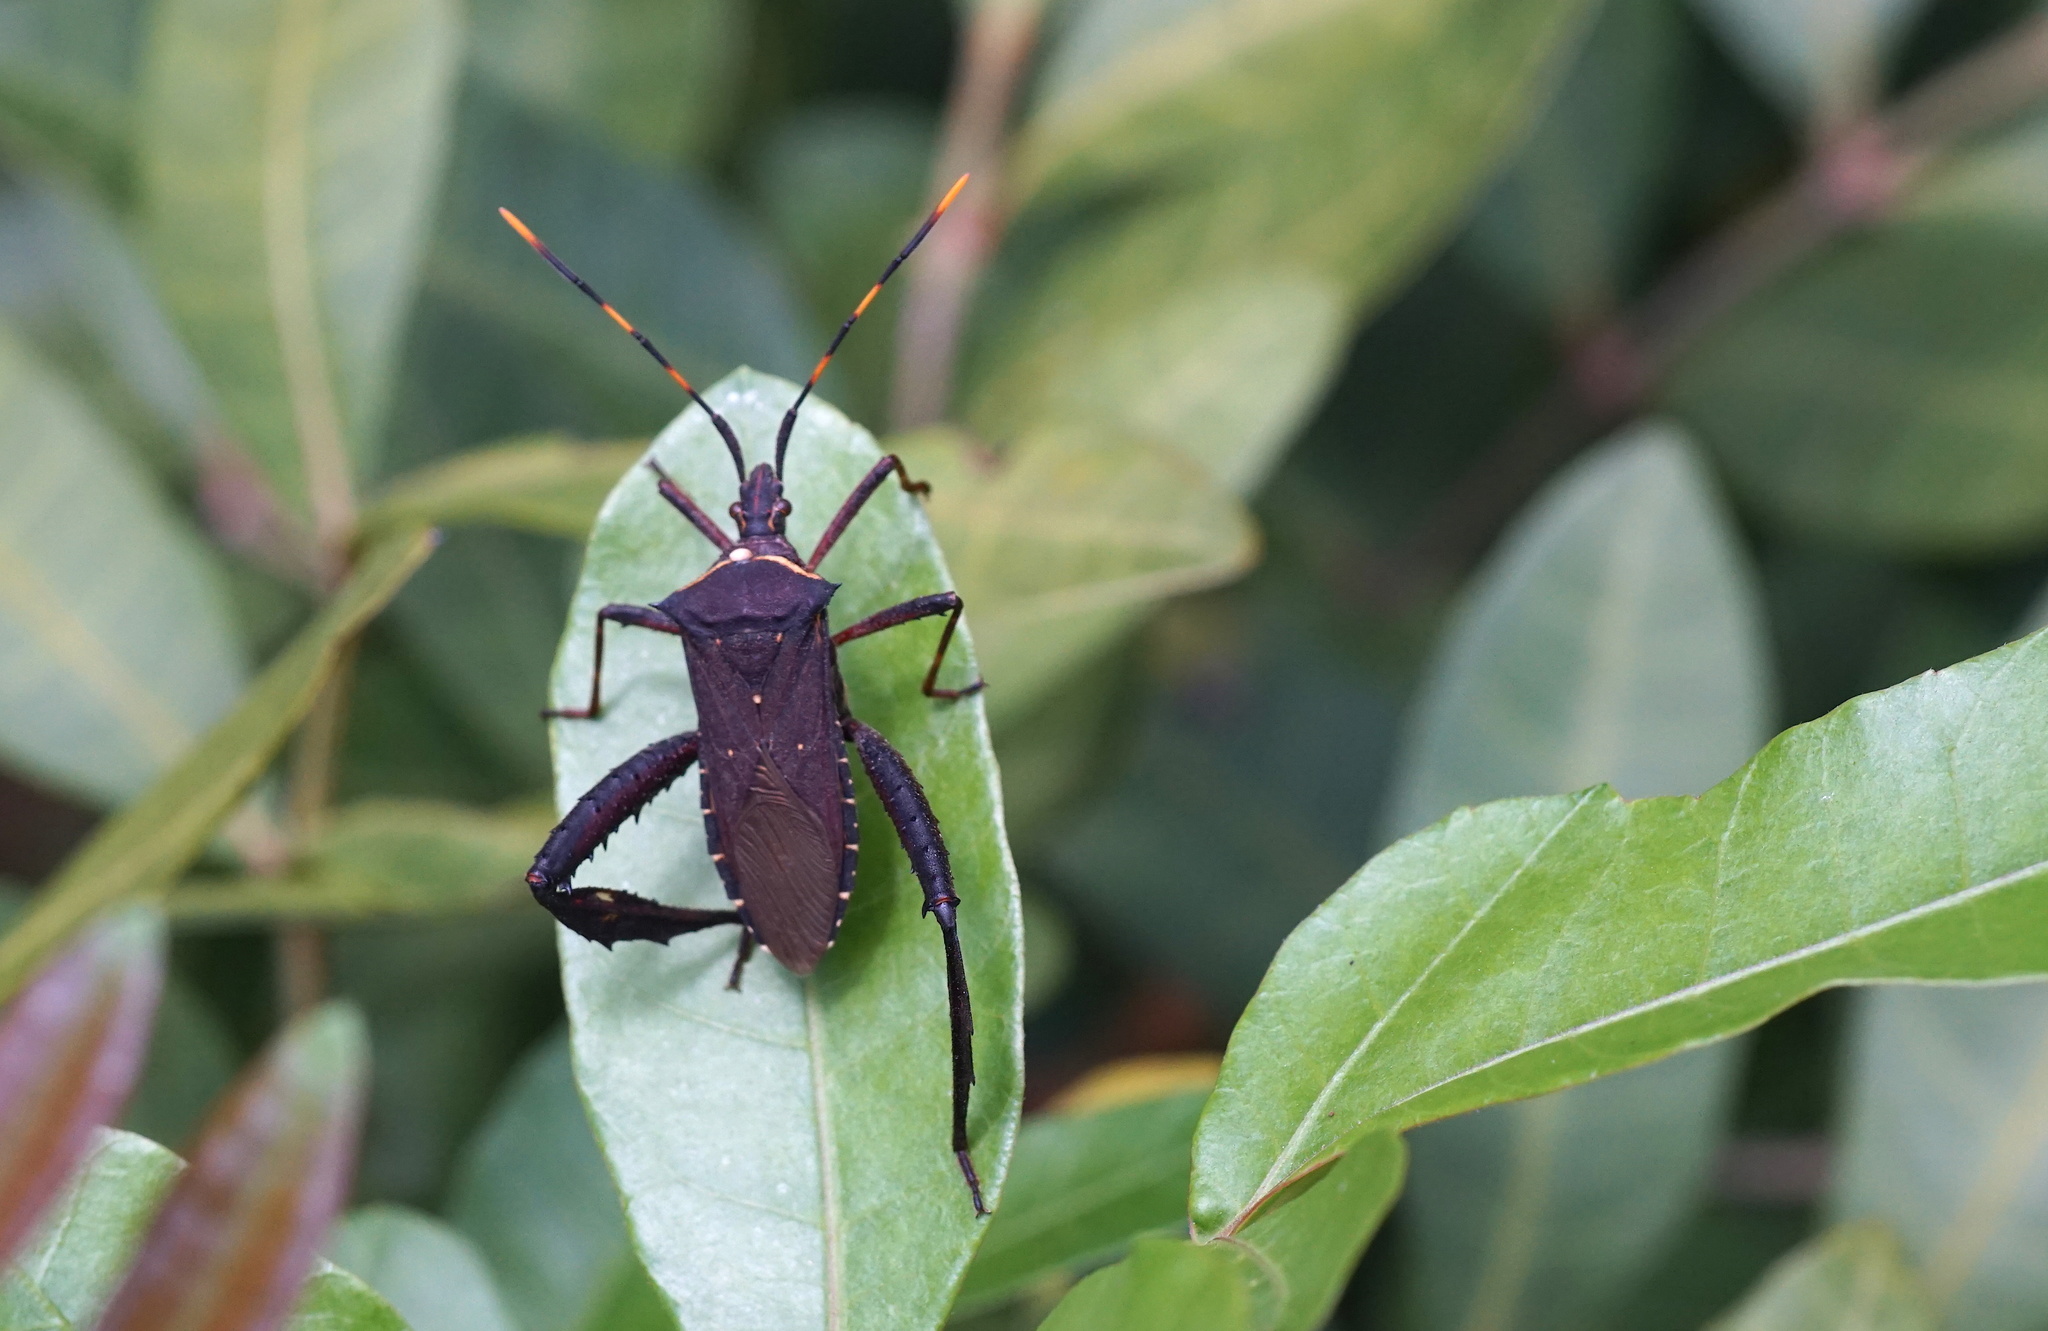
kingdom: Animalia
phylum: Arthropoda
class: Insecta
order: Hemiptera
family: Coreidae
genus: Leptoglossus
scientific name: Leptoglossus gonagra
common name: Citron bug
